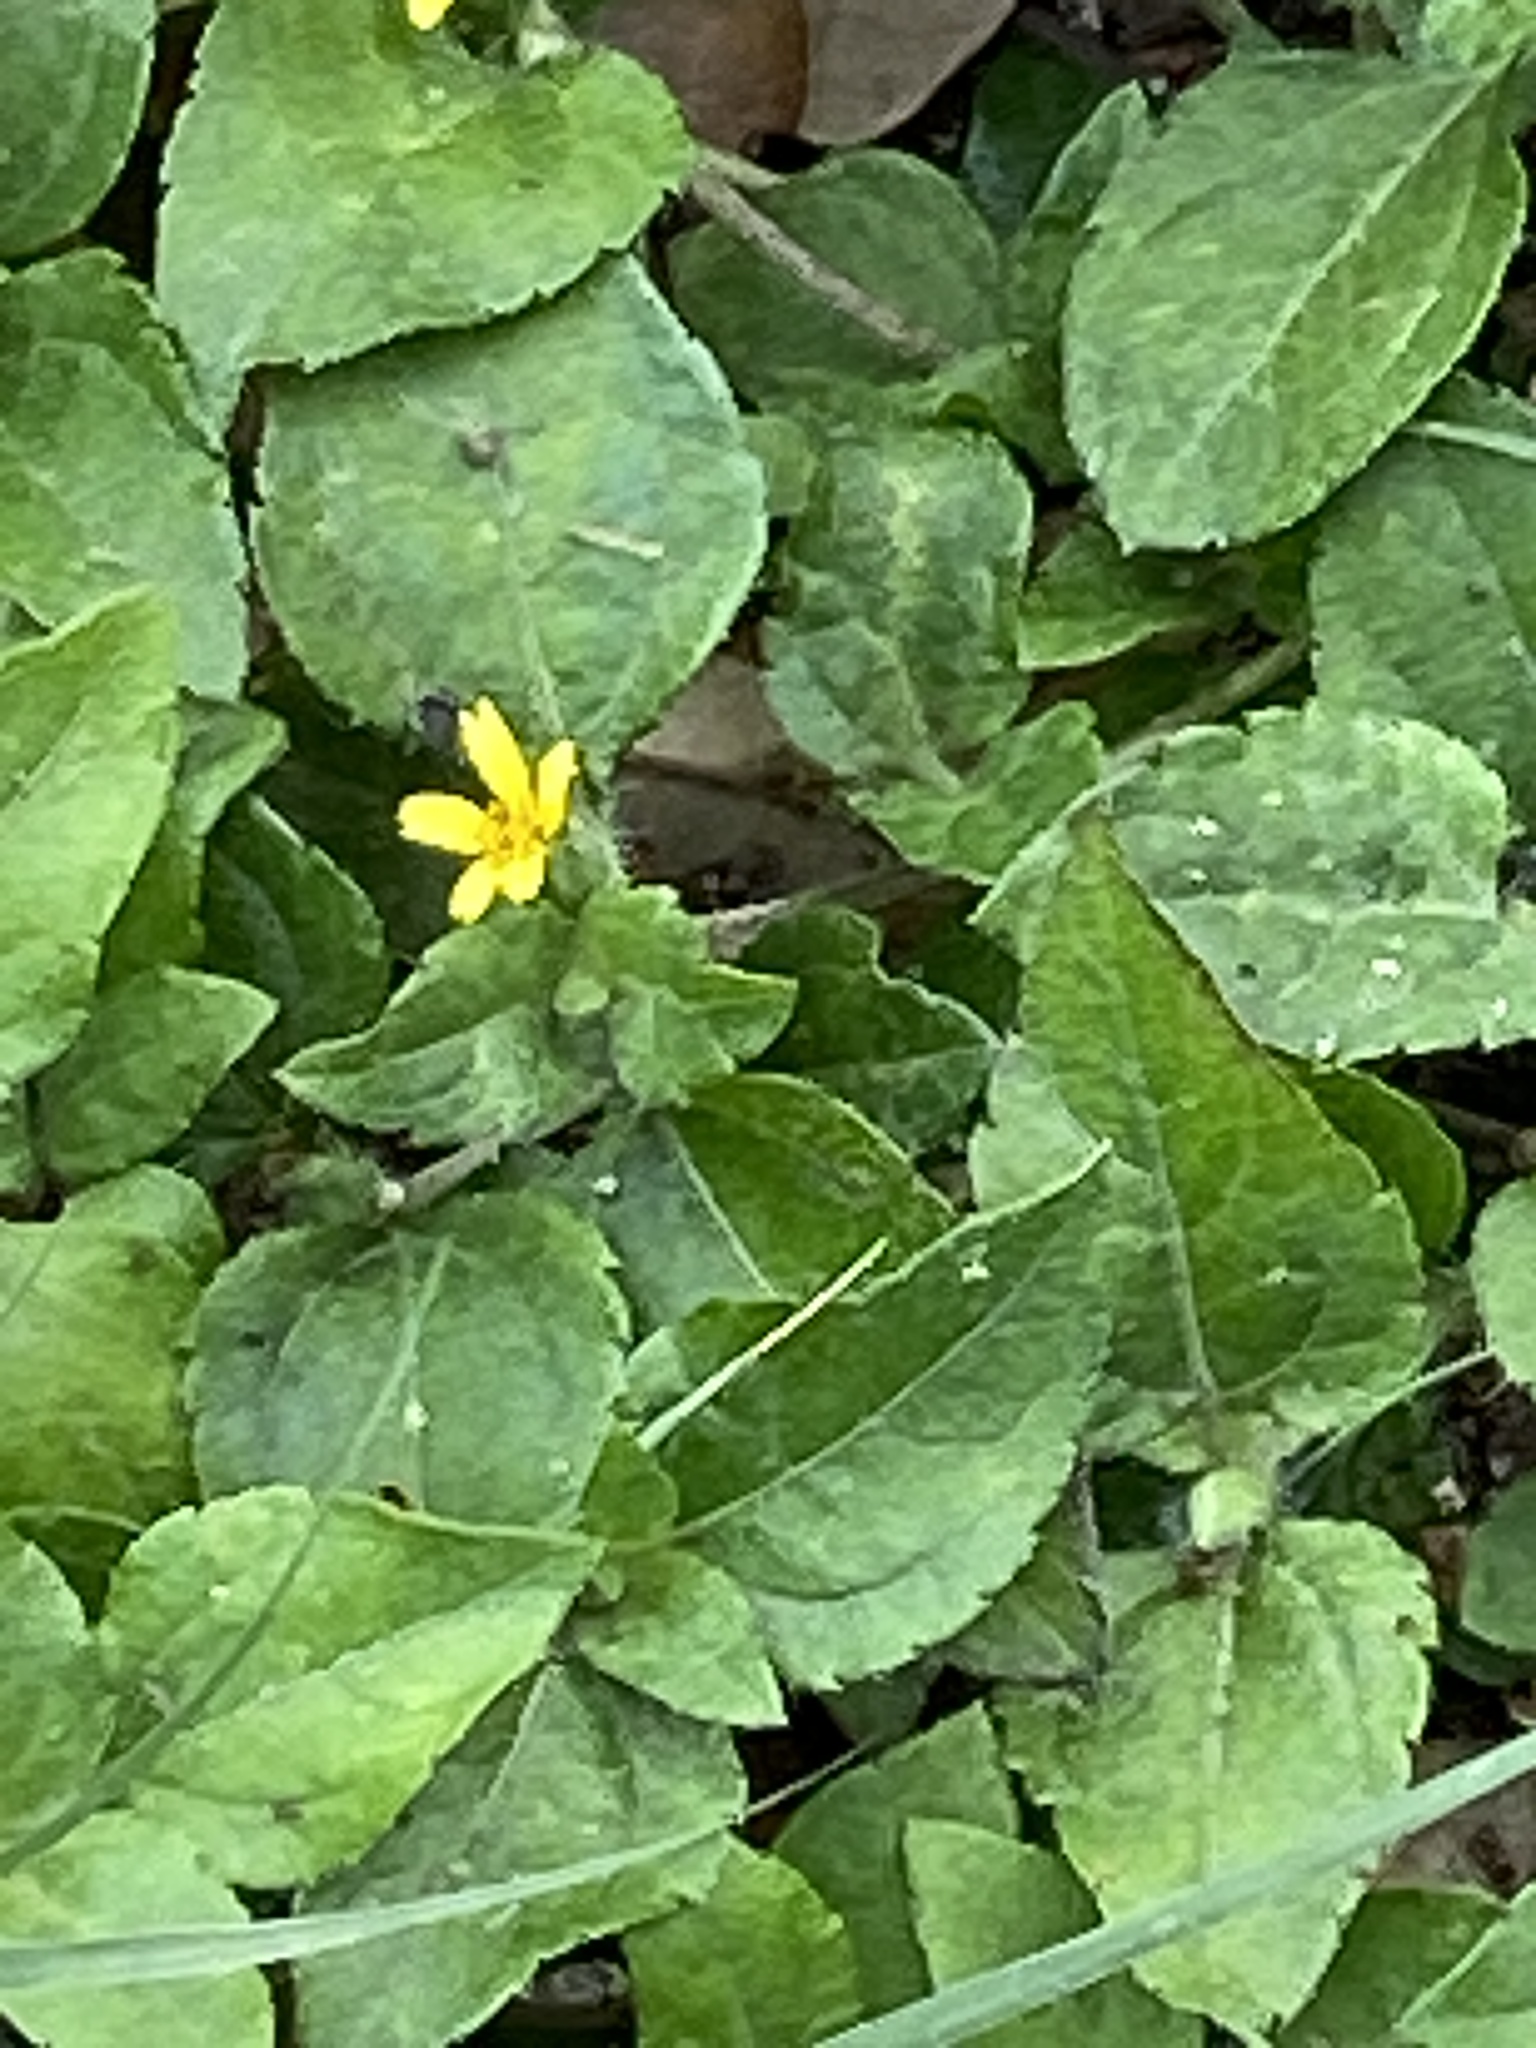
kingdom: Plantae
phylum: Tracheophyta
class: Magnoliopsida
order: Asterales
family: Asteraceae
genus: Calyptocarpus
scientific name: Calyptocarpus vialis
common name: Straggler daisy
